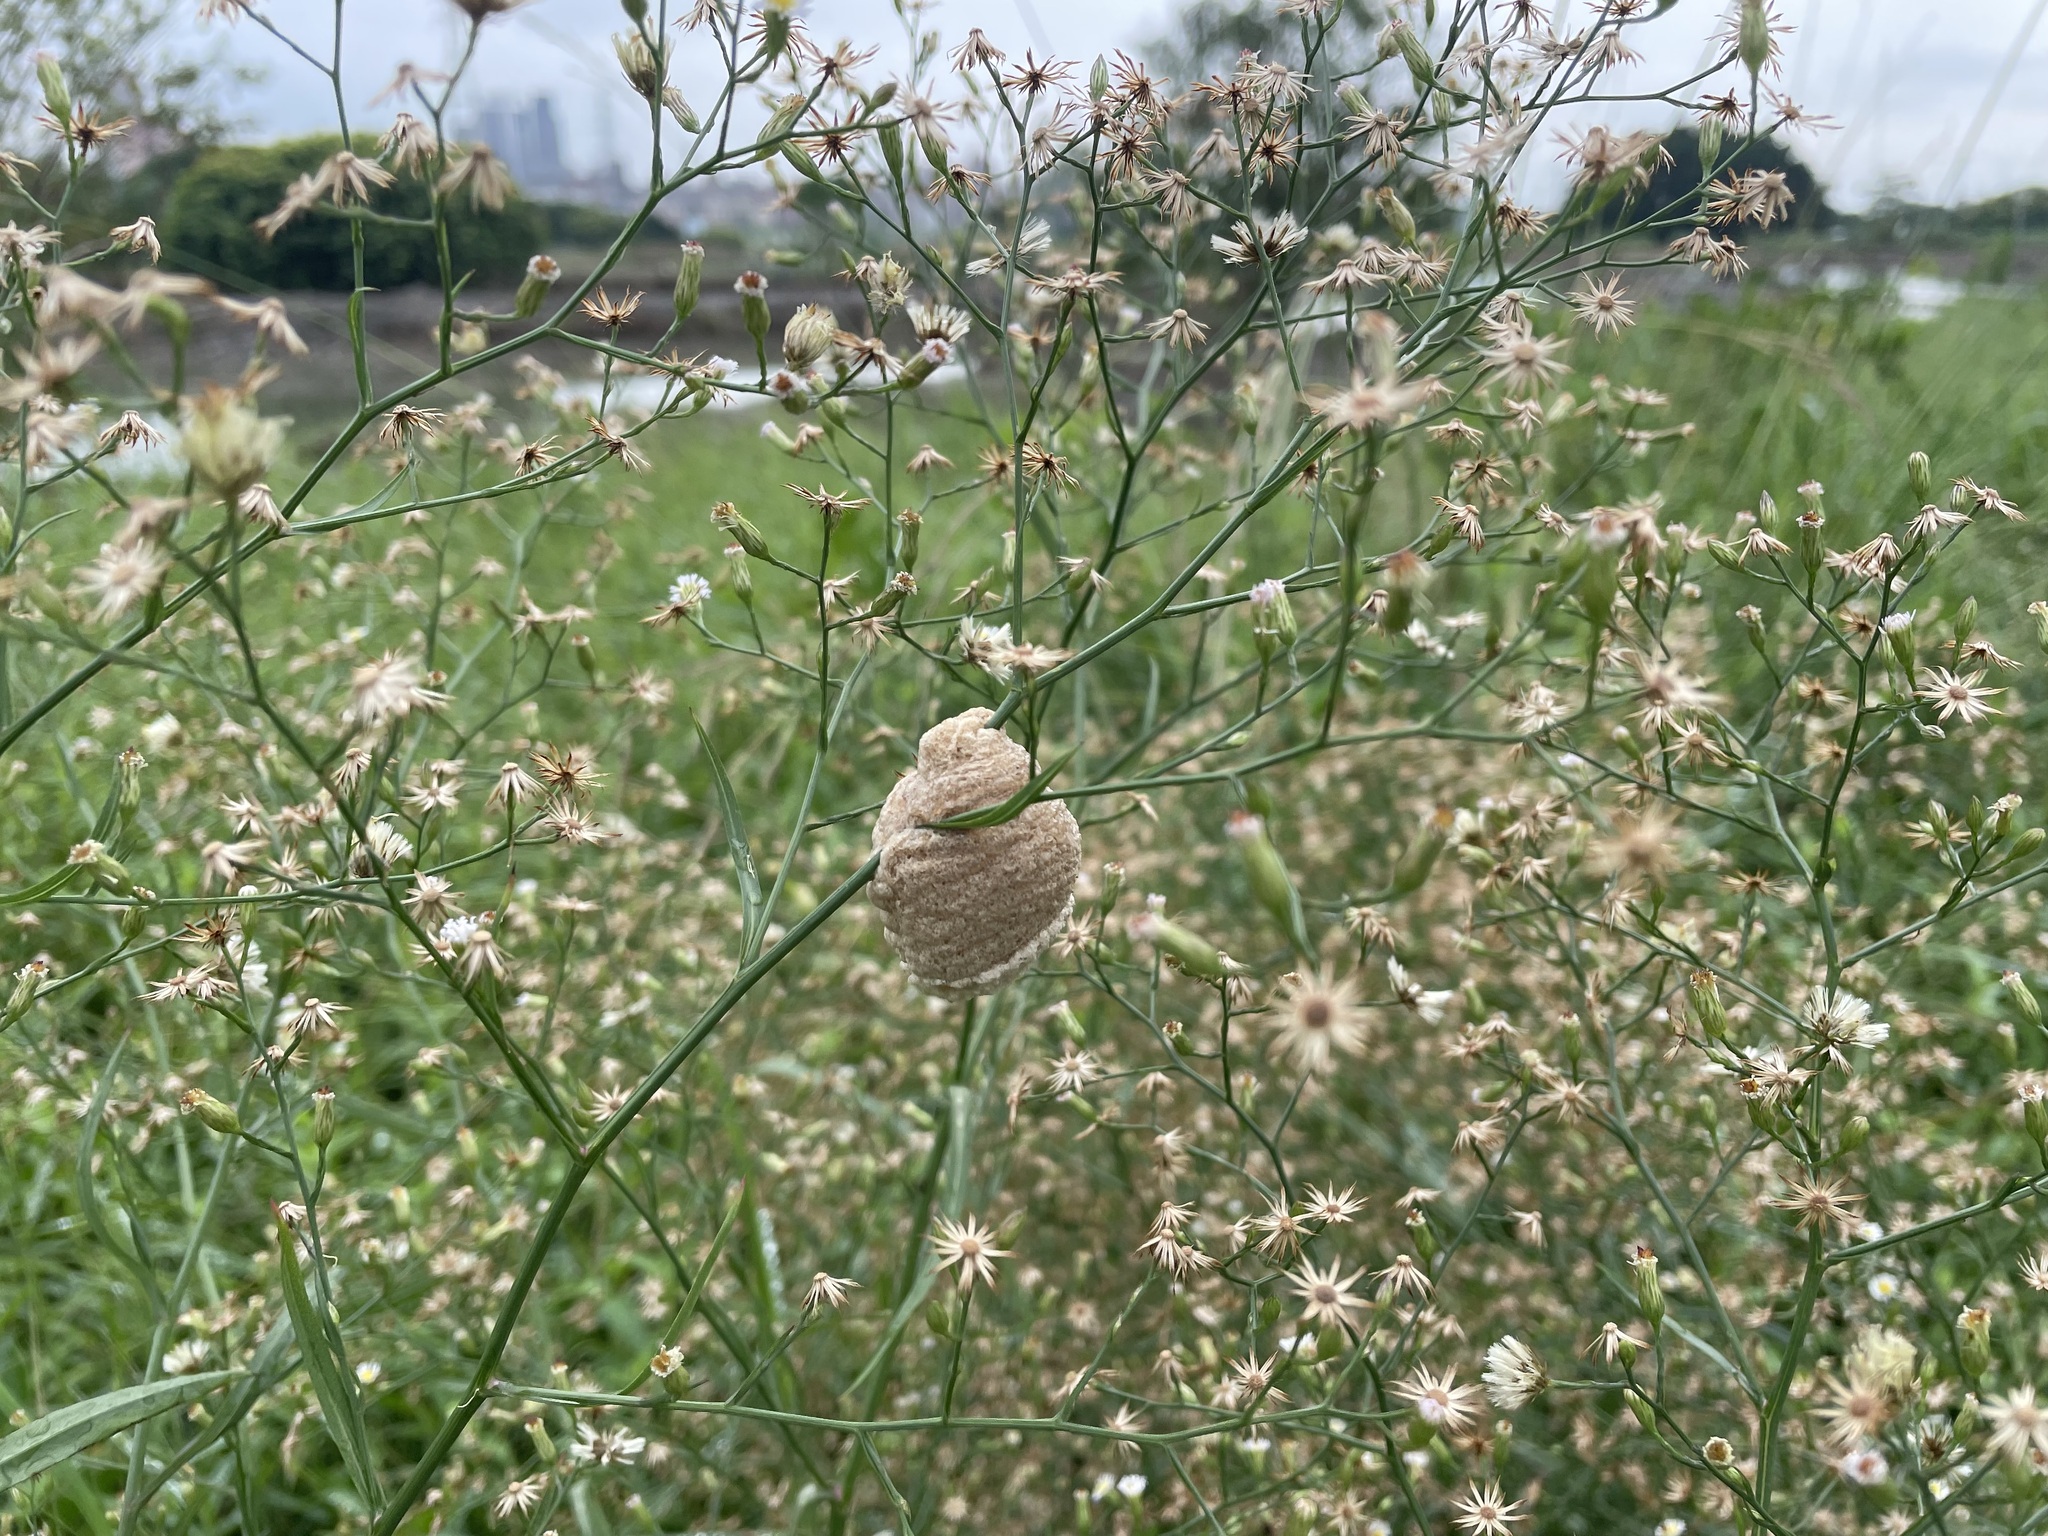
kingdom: Plantae
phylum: Tracheophyta
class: Magnoliopsida
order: Asterales
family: Asteraceae
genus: Symphyotrichum
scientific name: Symphyotrichum subulatum
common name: Annual saltmarsh aster
